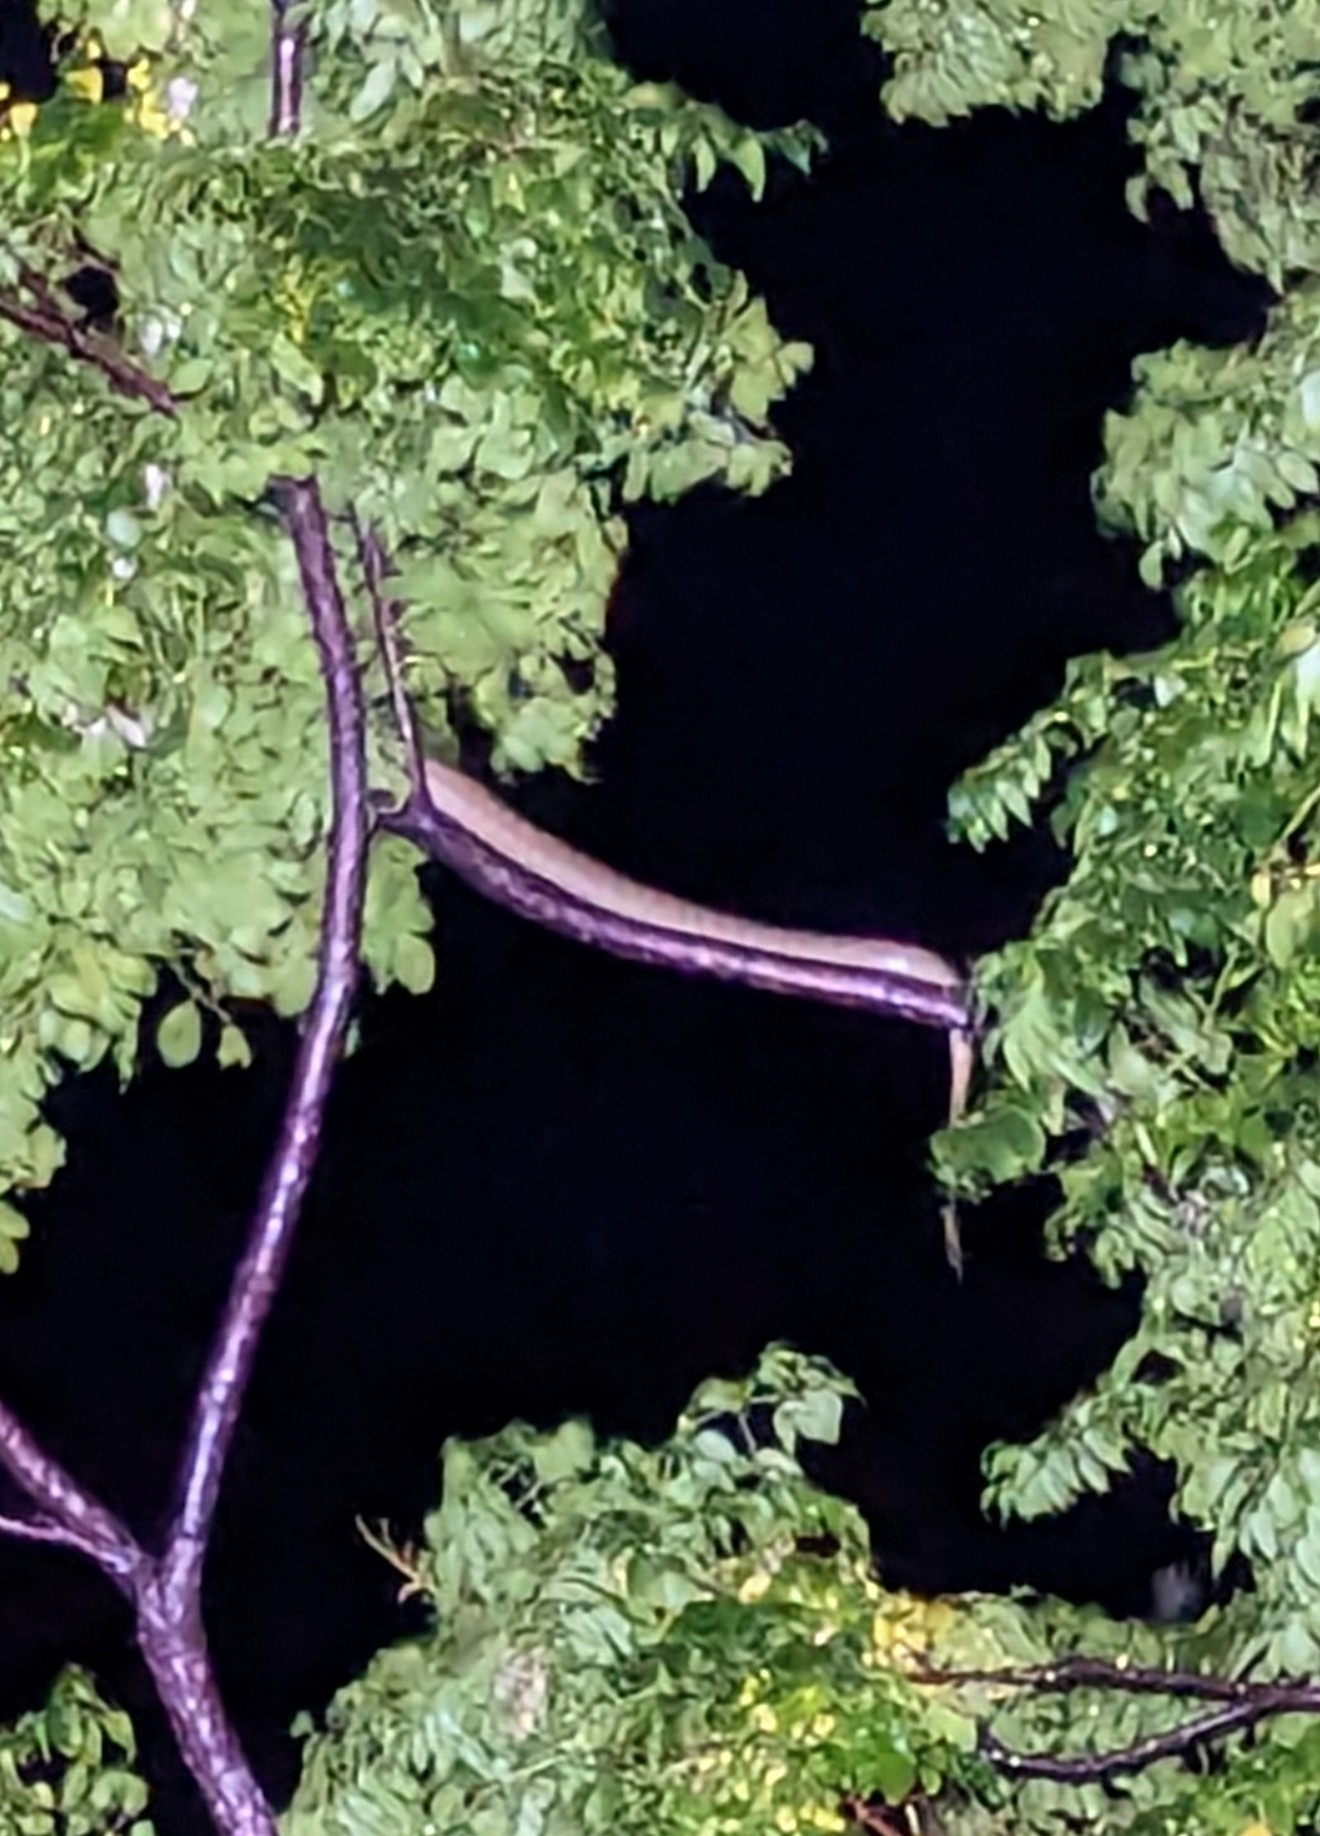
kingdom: Animalia
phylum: Chordata
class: Squamata
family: Pythonidae
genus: Morelia
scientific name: Morelia spilota
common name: Carpet python
